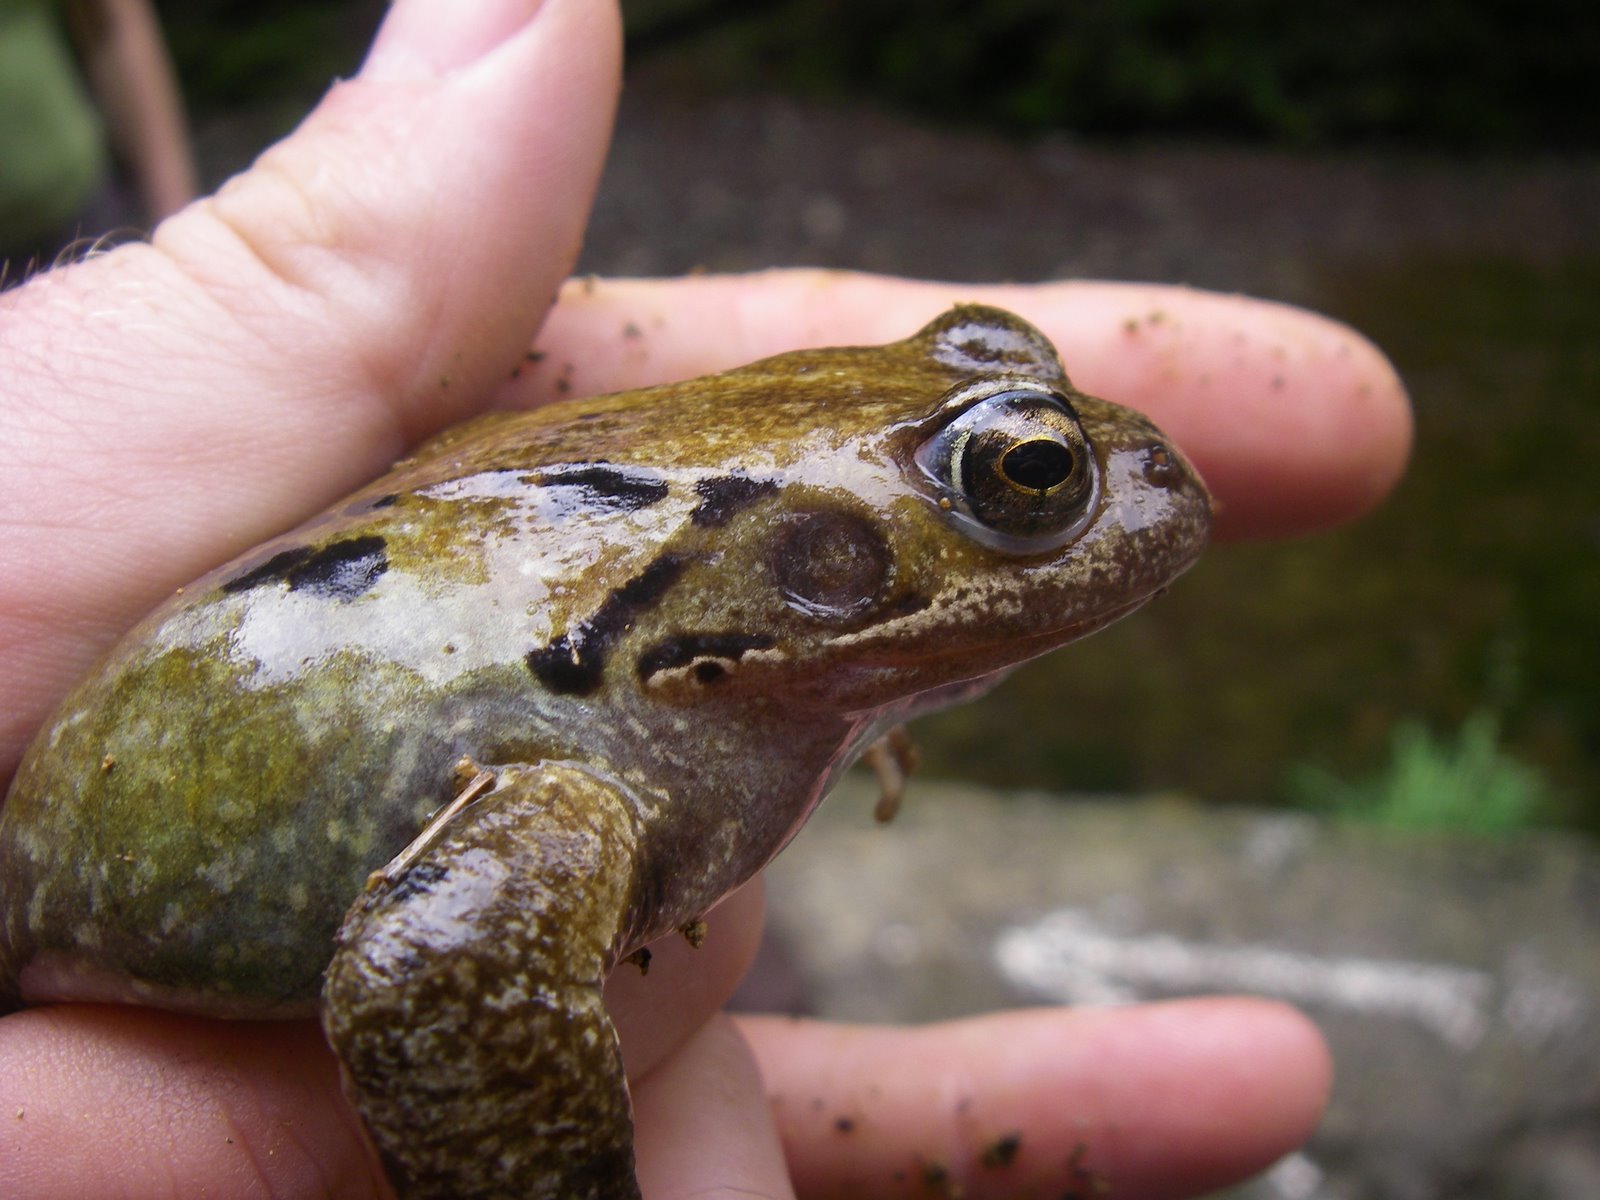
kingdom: Animalia
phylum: Chordata
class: Amphibia
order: Anura
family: Ranidae
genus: Rana
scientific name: Rana temporaria
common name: Common frog
